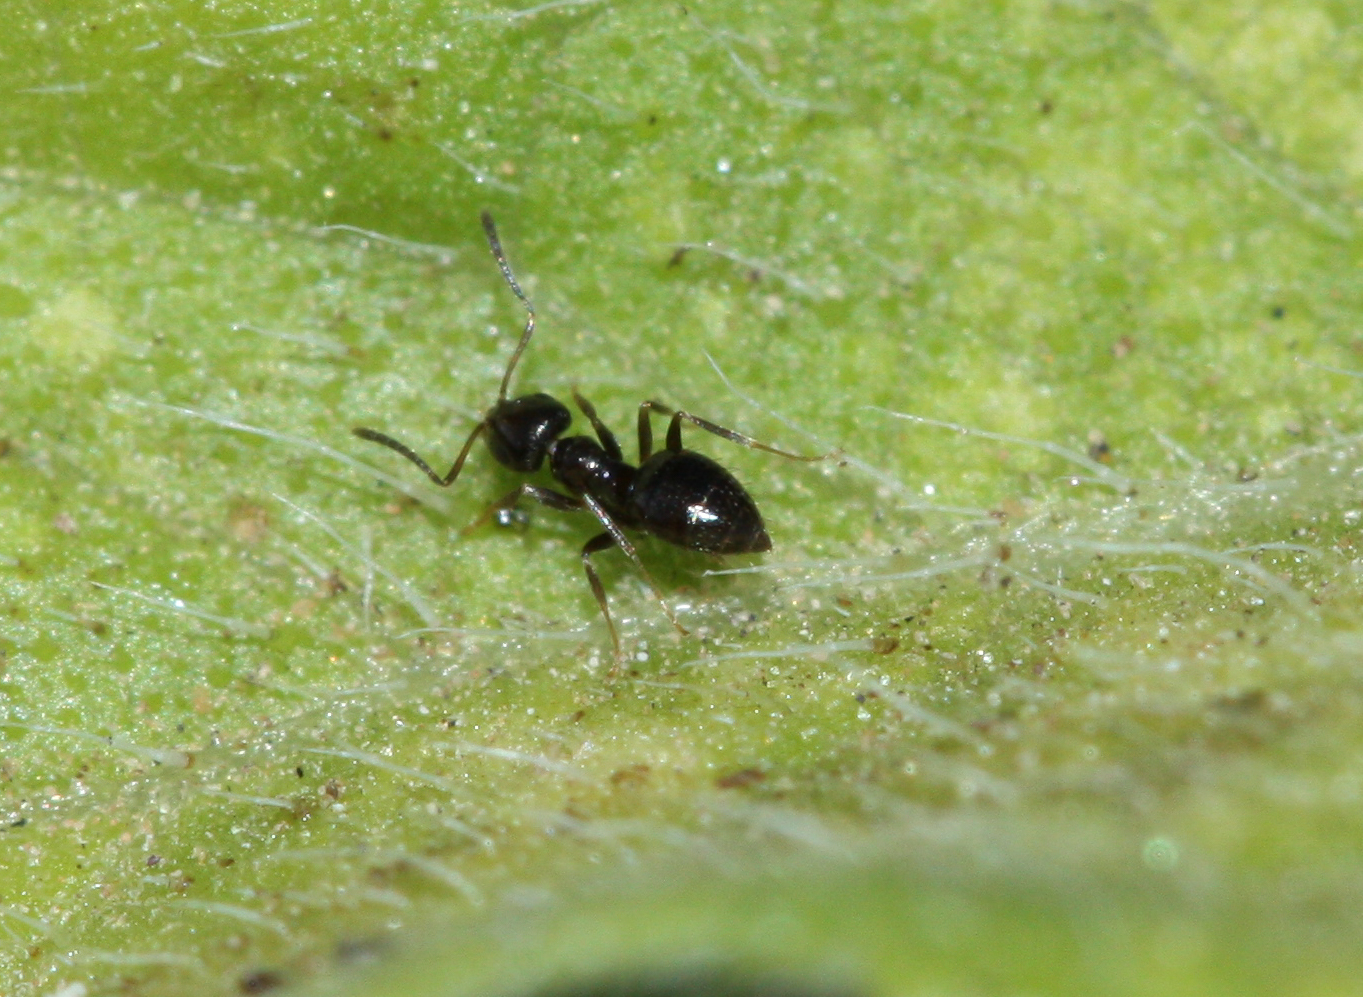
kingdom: Animalia
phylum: Arthropoda
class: Insecta
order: Hymenoptera
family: Formicidae
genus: Brachymyrmex
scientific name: Brachymyrmex patagonicus
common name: Dark rover ant
